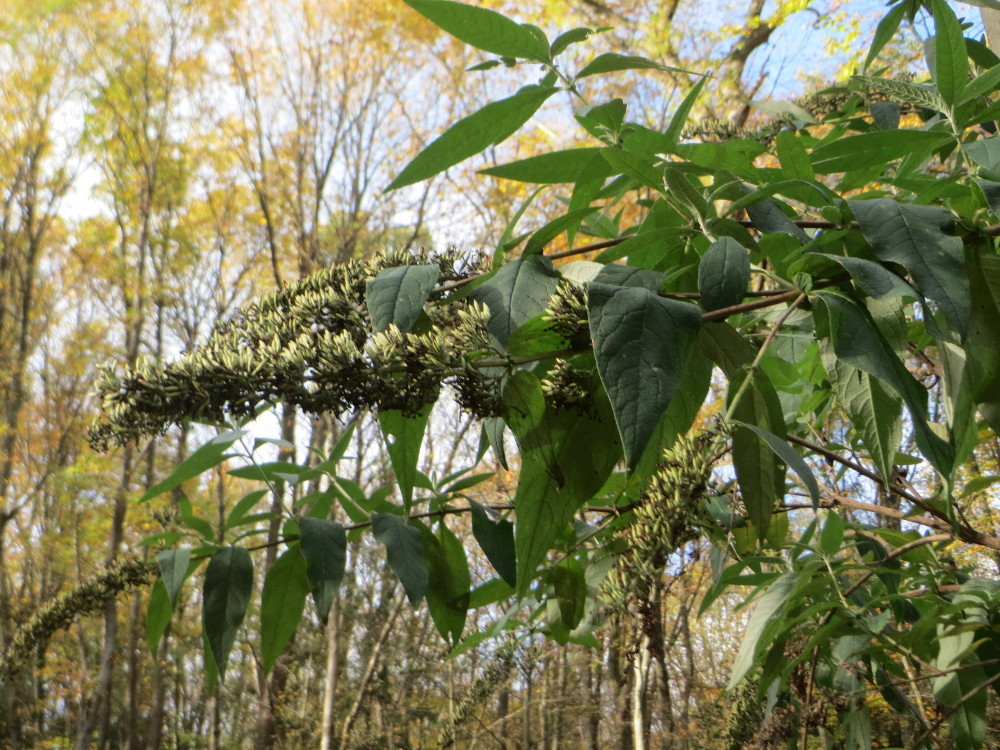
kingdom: Plantae
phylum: Tracheophyta
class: Magnoliopsida
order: Lamiales
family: Scrophulariaceae
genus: Buddleja
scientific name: Buddleja davidii
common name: Butterfly-bush
